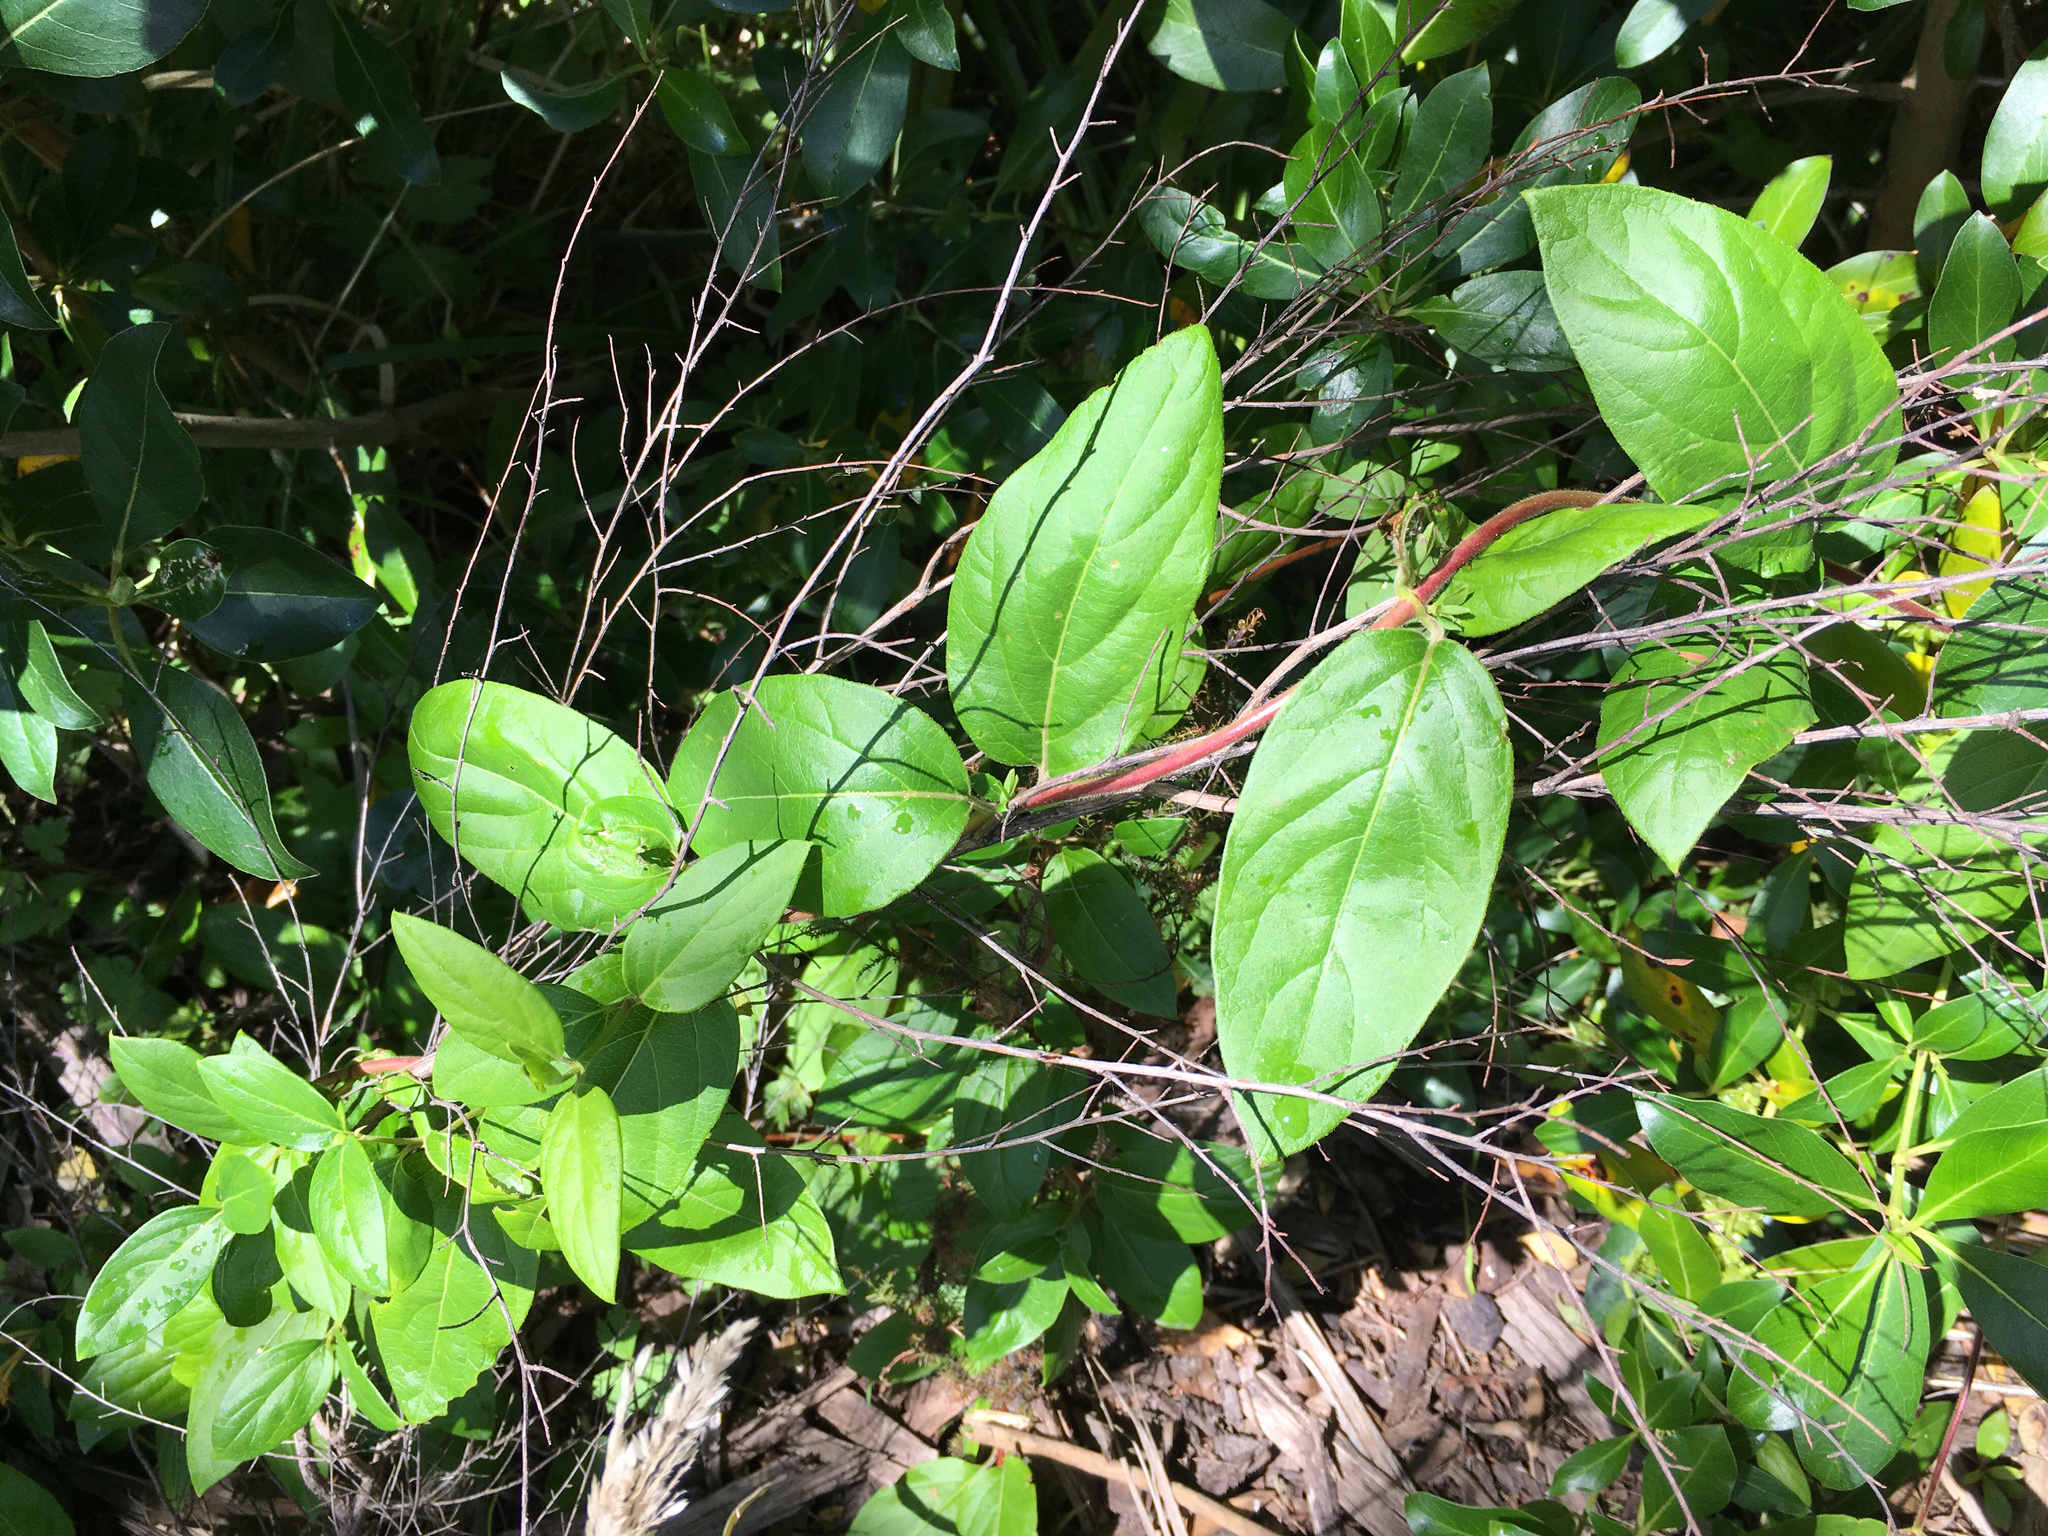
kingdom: Plantae
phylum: Tracheophyta
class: Magnoliopsida
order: Dipsacales
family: Caprifoliaceae
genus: Lonicera
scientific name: Lonicera japonica
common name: Japanese honeysuckle
